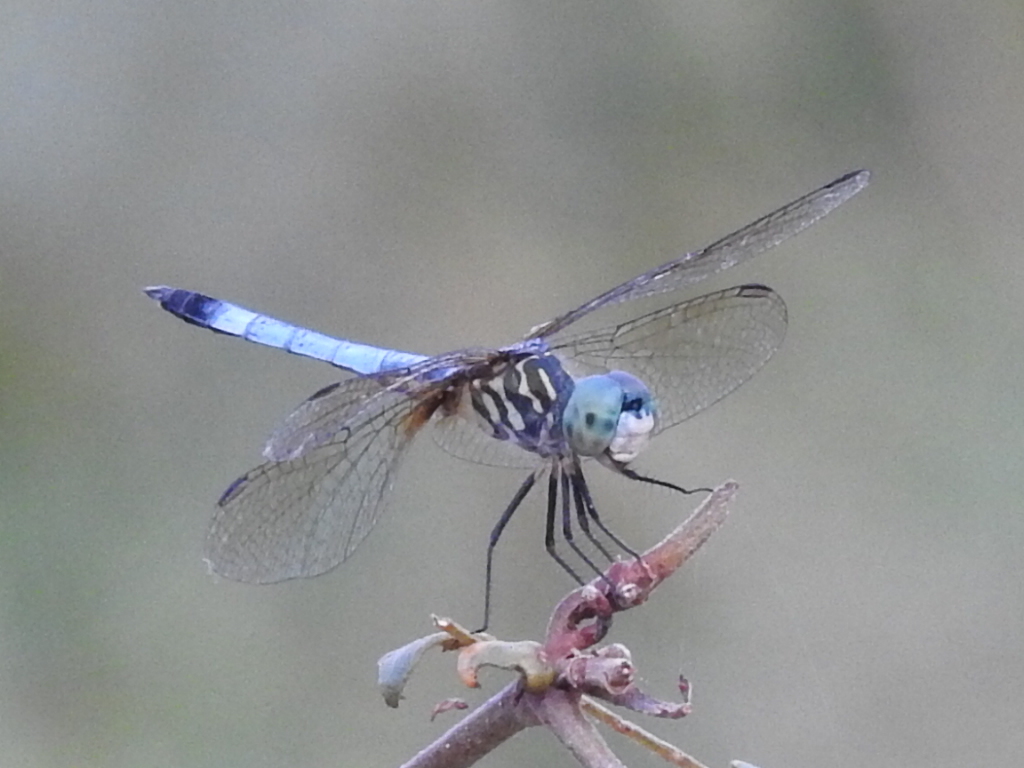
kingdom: Animalia
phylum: Arthropoda
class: Insecta
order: Odonata
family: Libellulidae
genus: Pachydiplax
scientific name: Pachydiplax longipennis
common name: Blue dasher
